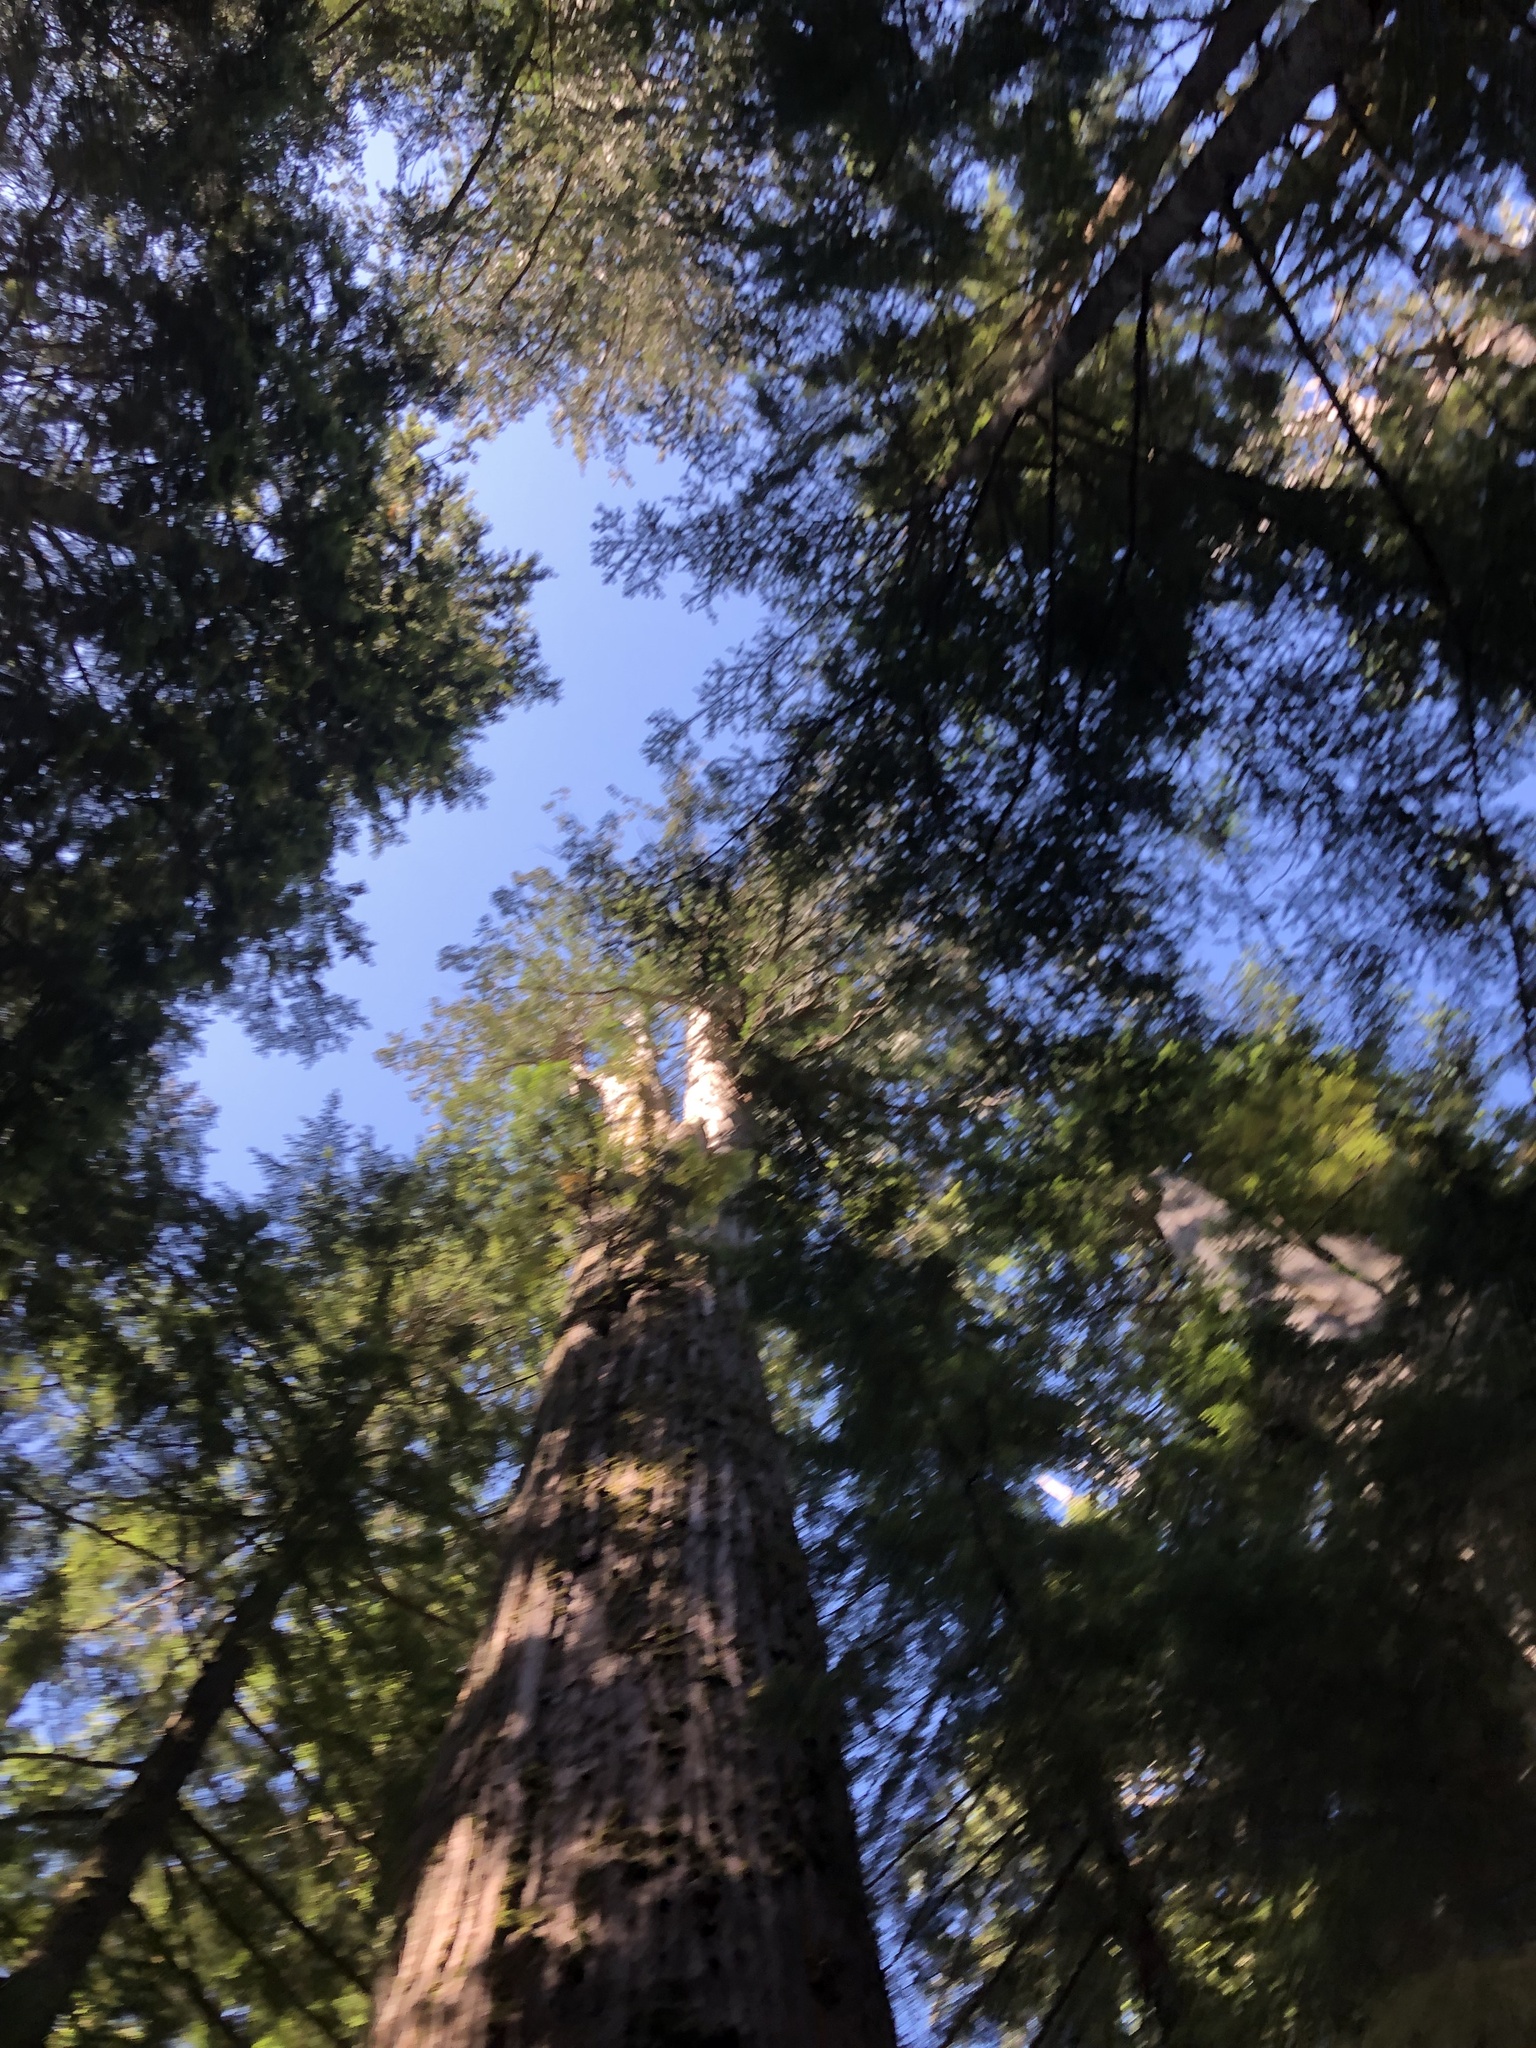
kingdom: Plantae
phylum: Tracheophyta
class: Pinopsida
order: Pinales
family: Cupressaceae
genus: Thuja
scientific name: Thuja plicata
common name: Western red-cedar
